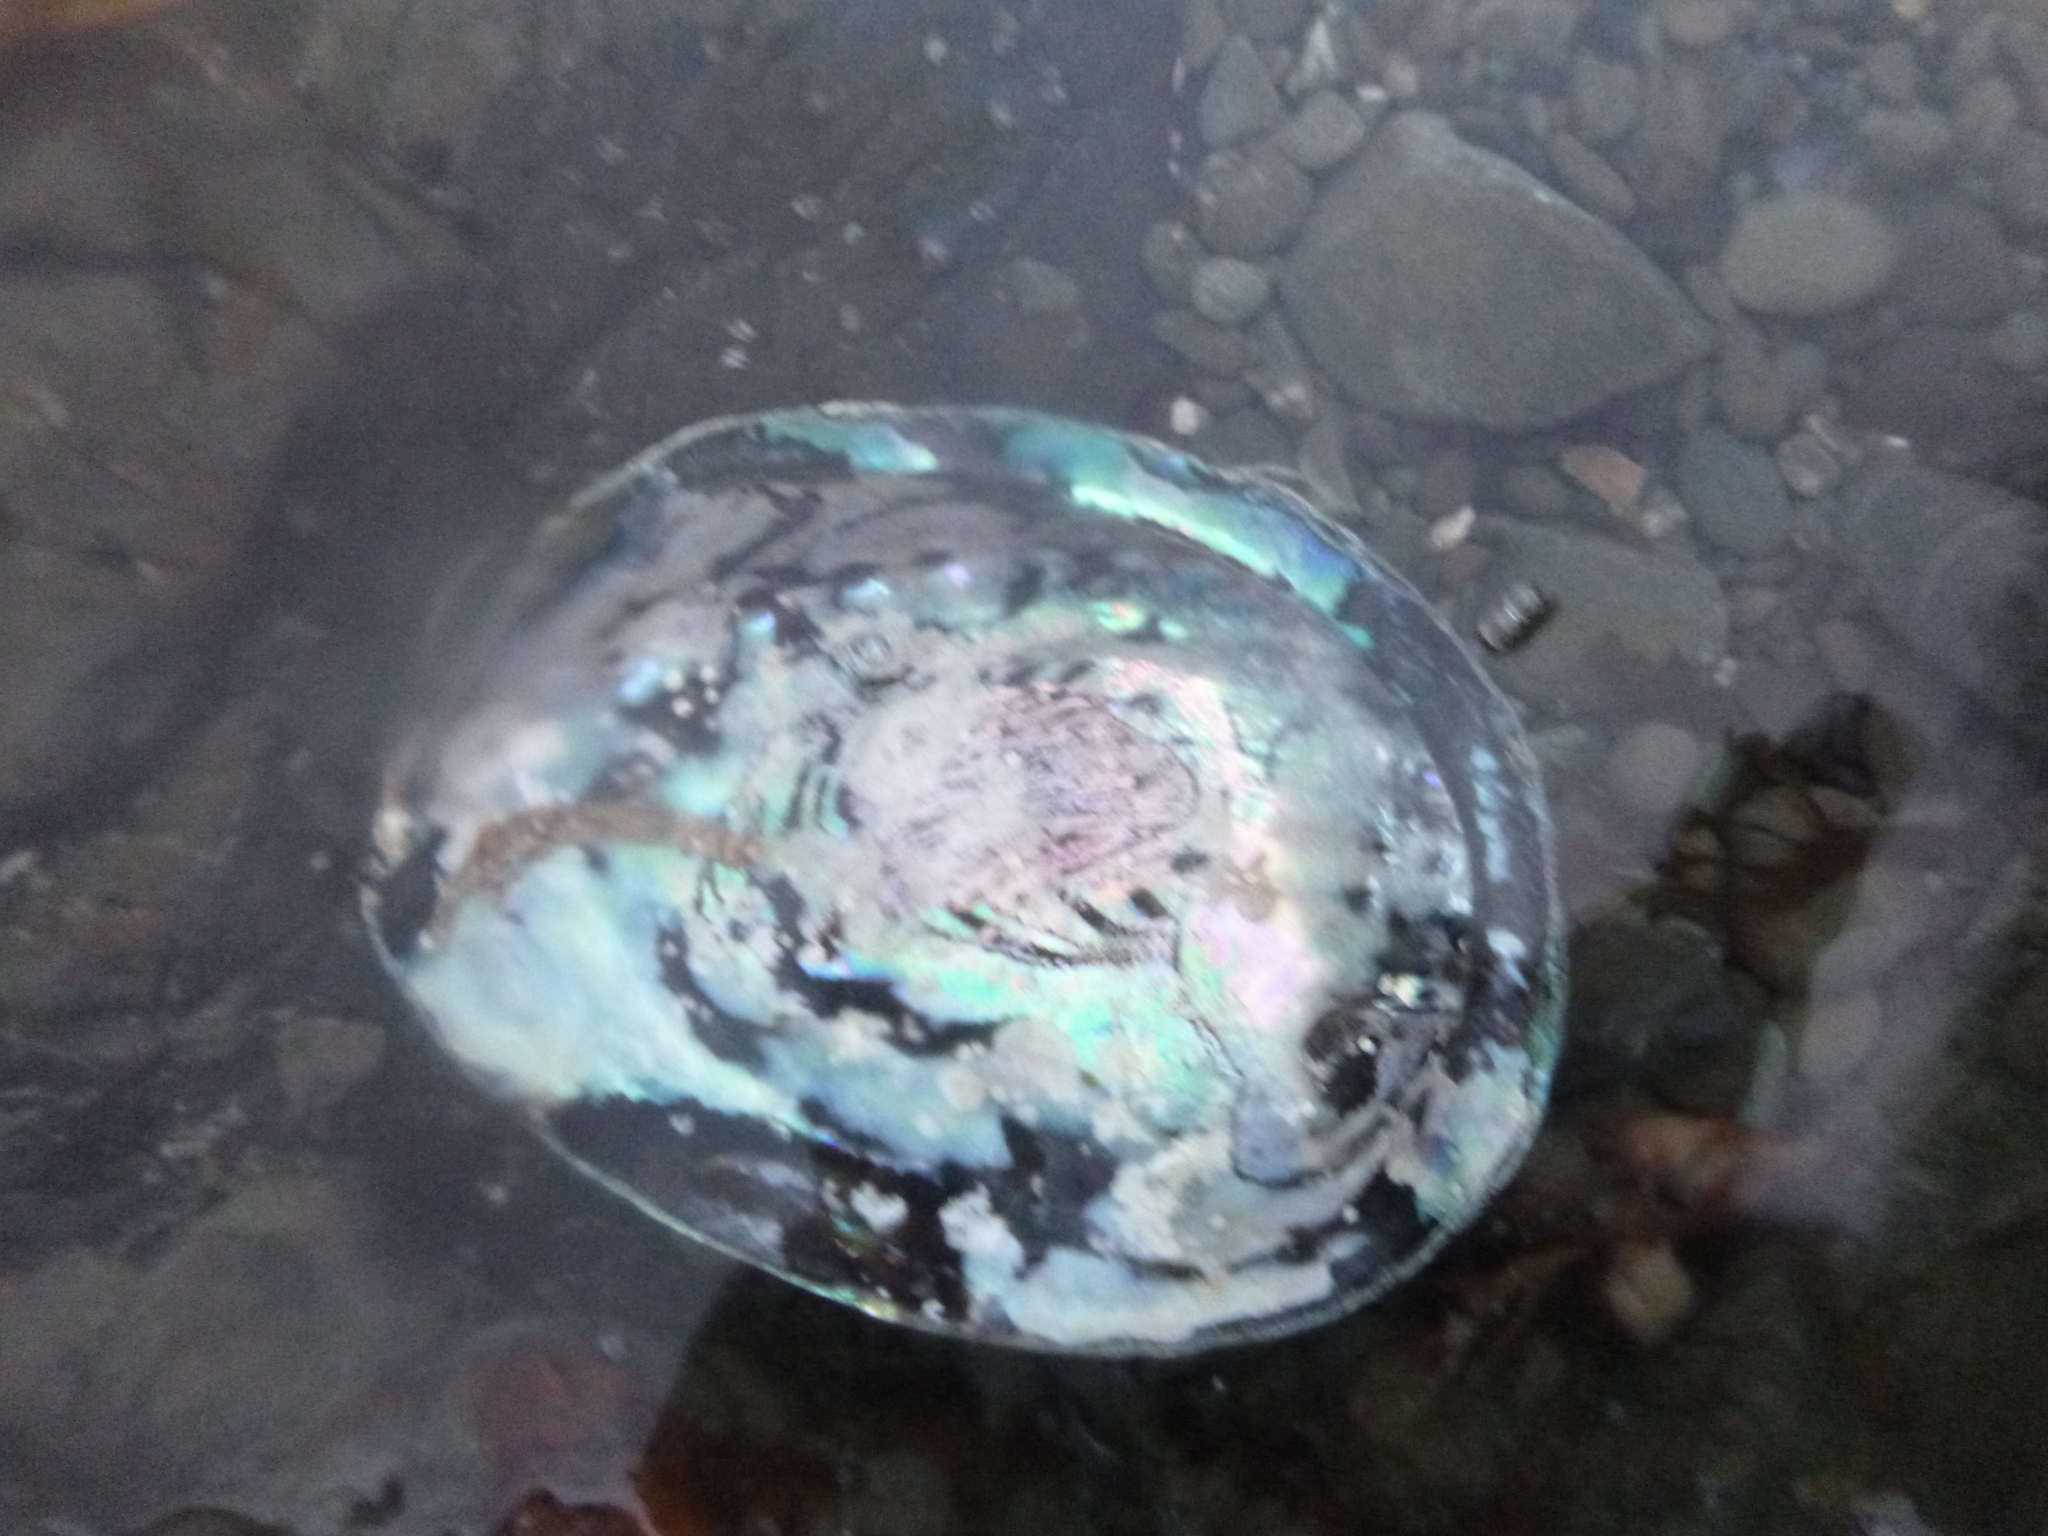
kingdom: Animalia
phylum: Mollusca
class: Gastropoda
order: Lepetellida
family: Haliotidae
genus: Haliotis
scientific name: Haliotis iris
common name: Abalone
